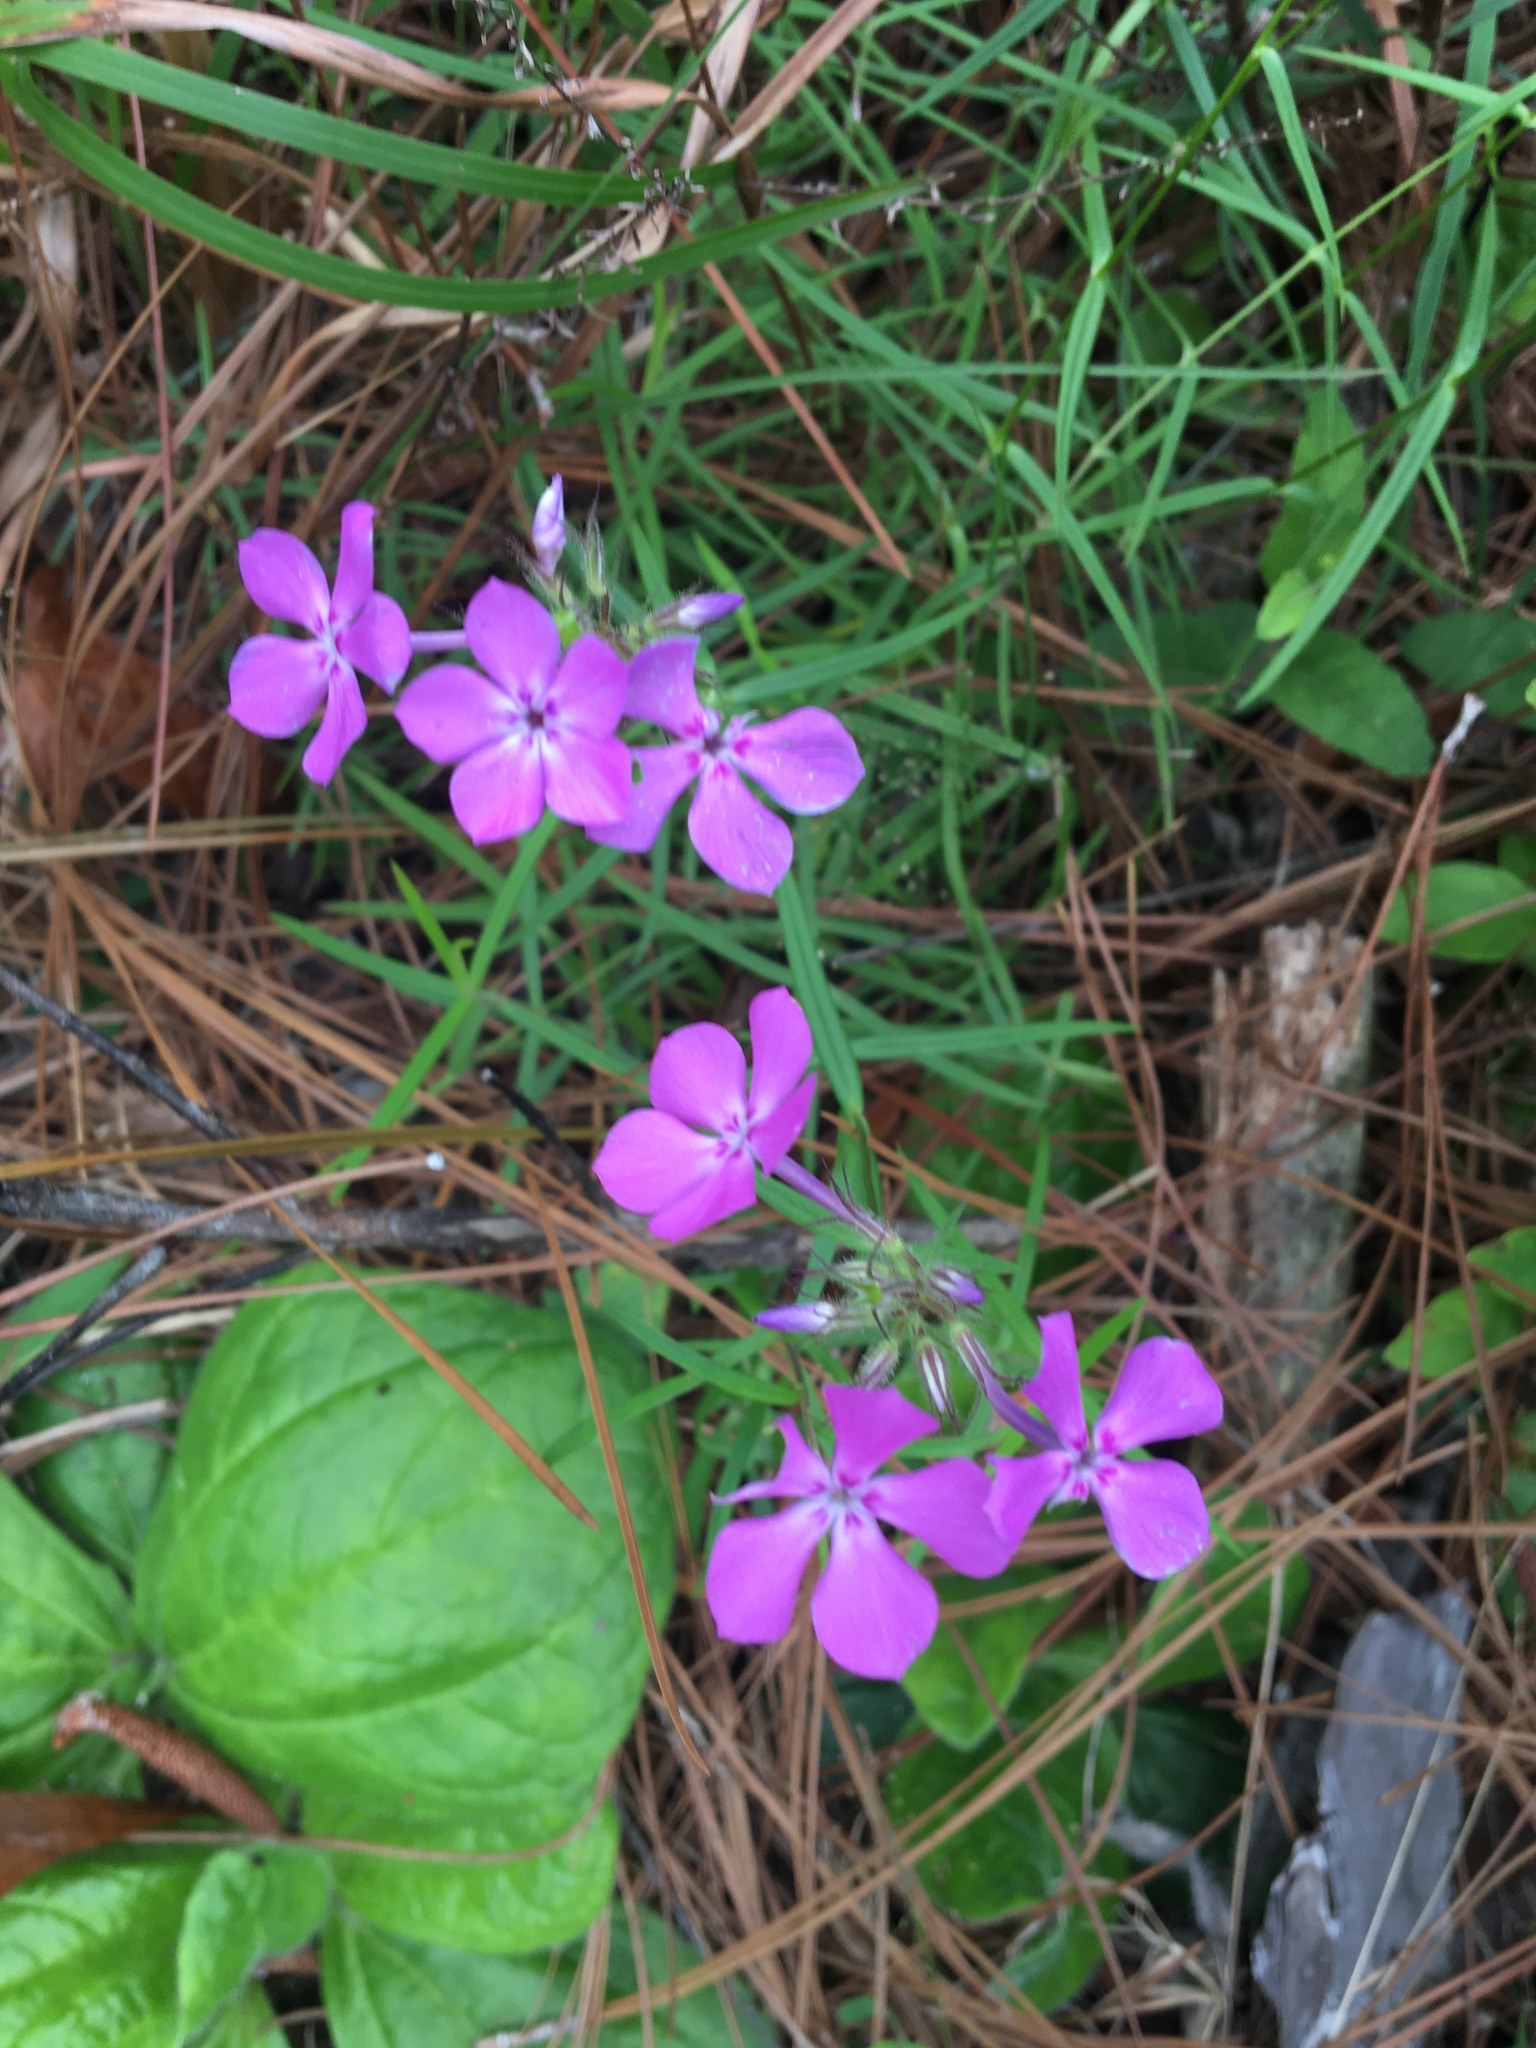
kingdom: Plantae
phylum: Tracheophyta
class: Magnoliopsida
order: Ericales
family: Polemoniaceae
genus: Phlox
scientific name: Phlox pilosa
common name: Prairie phlox
